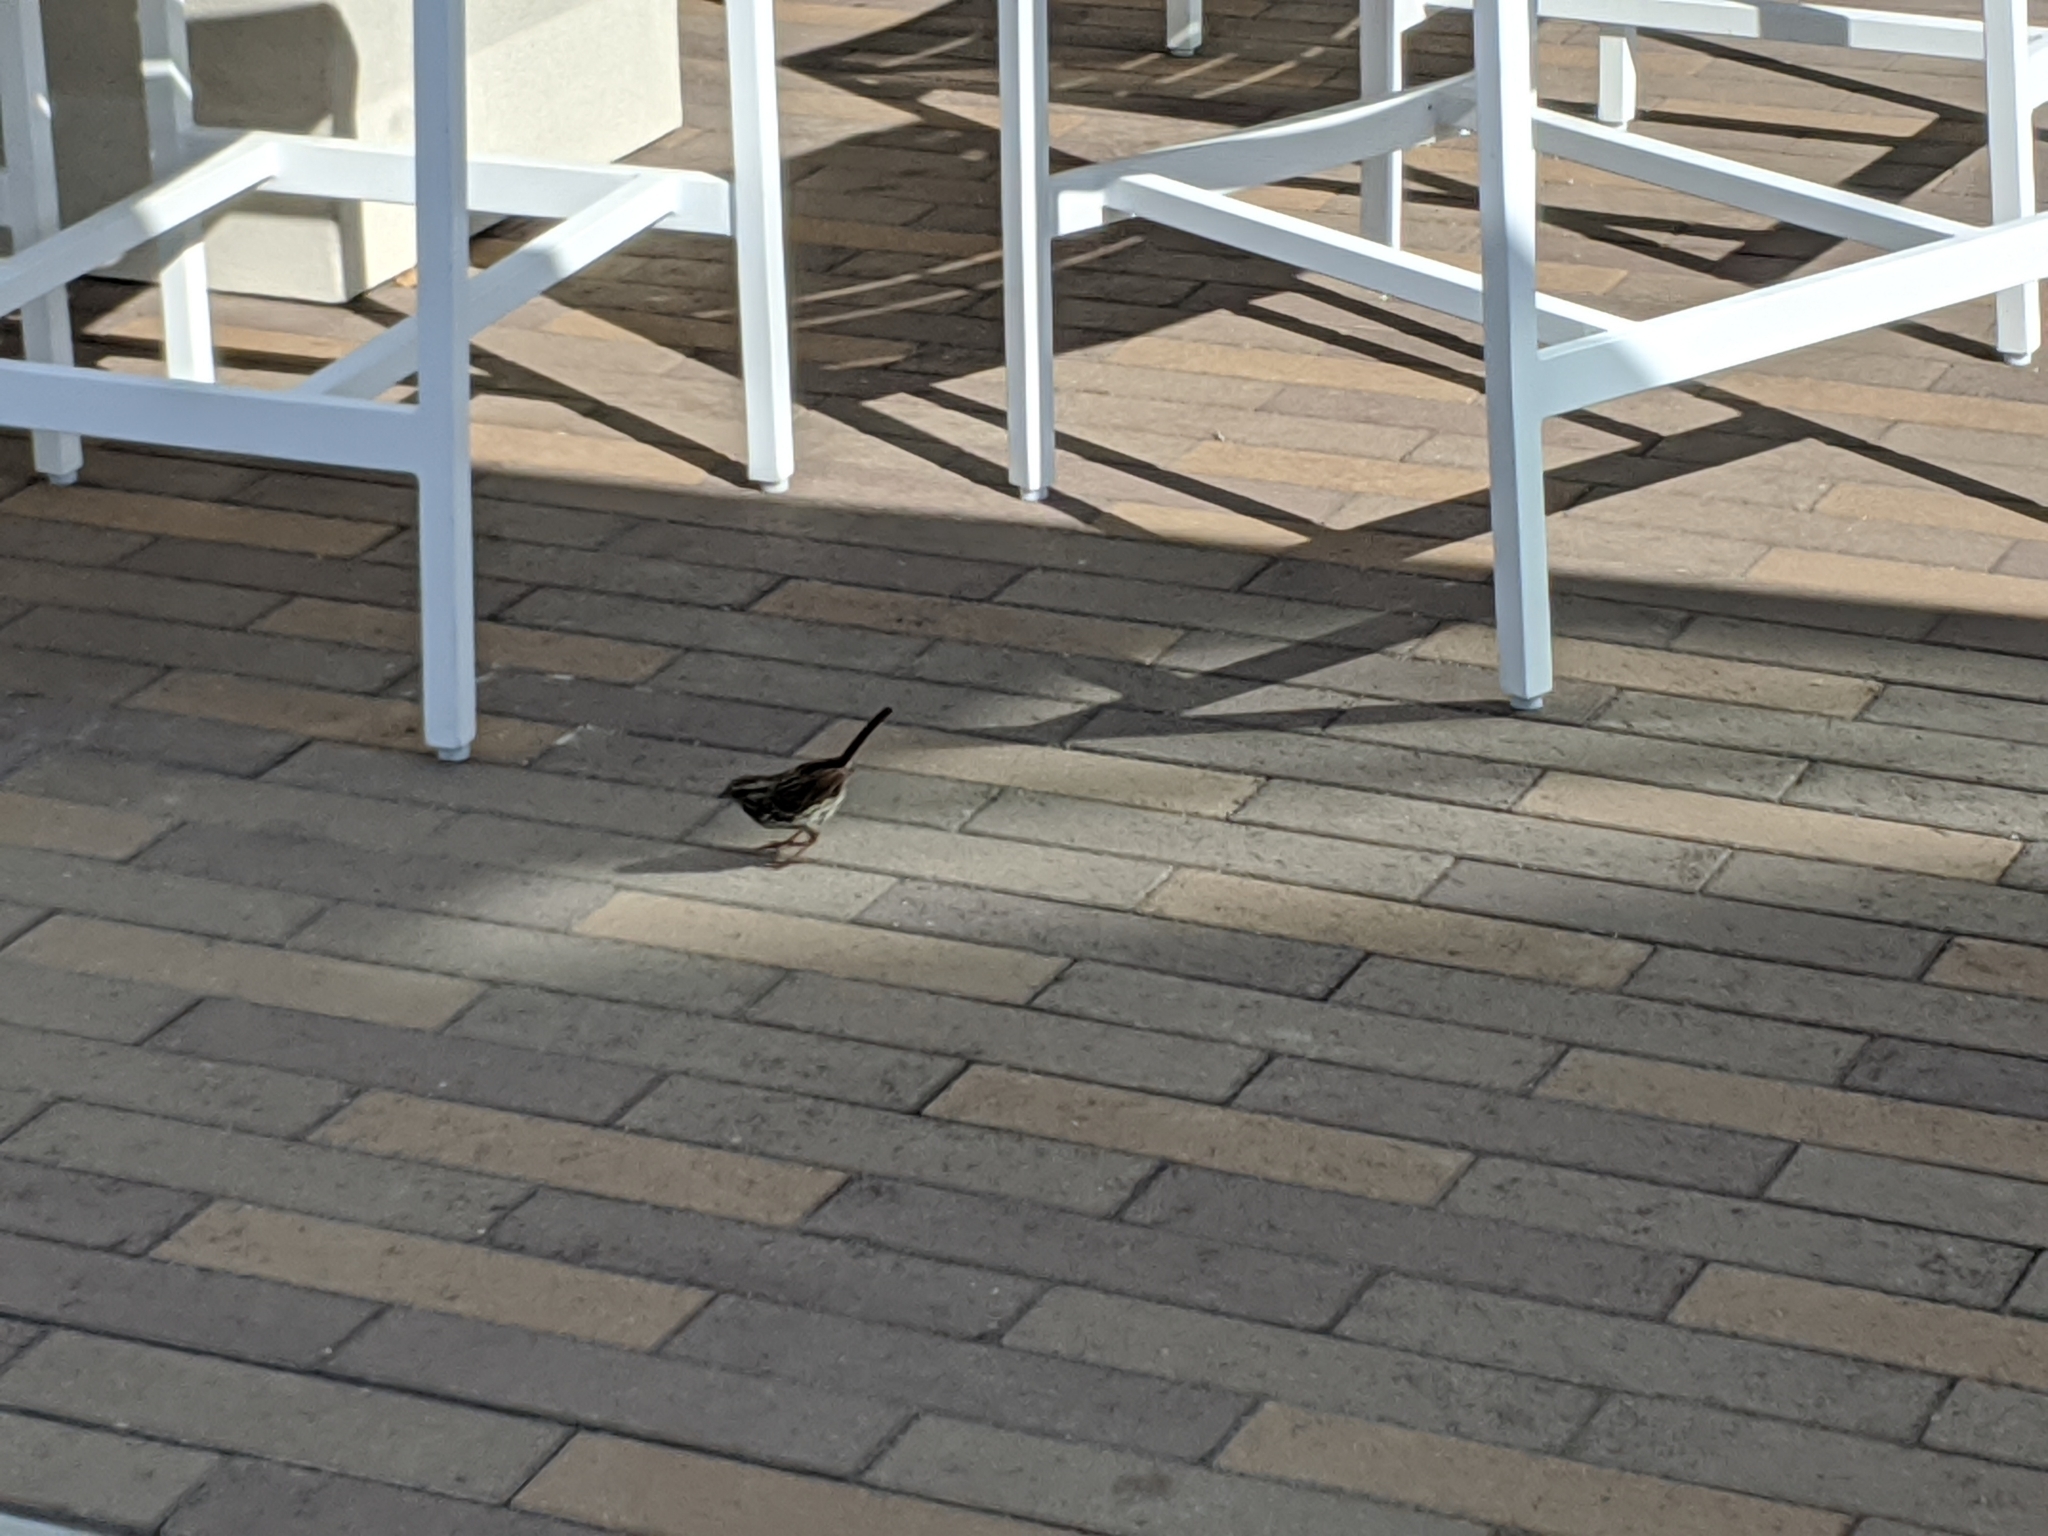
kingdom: Animalia
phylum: Chordata
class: Aves
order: Passeriformes
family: Passerellidae
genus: Melospiza
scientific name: Melospiza melodia
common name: Song sparrow
